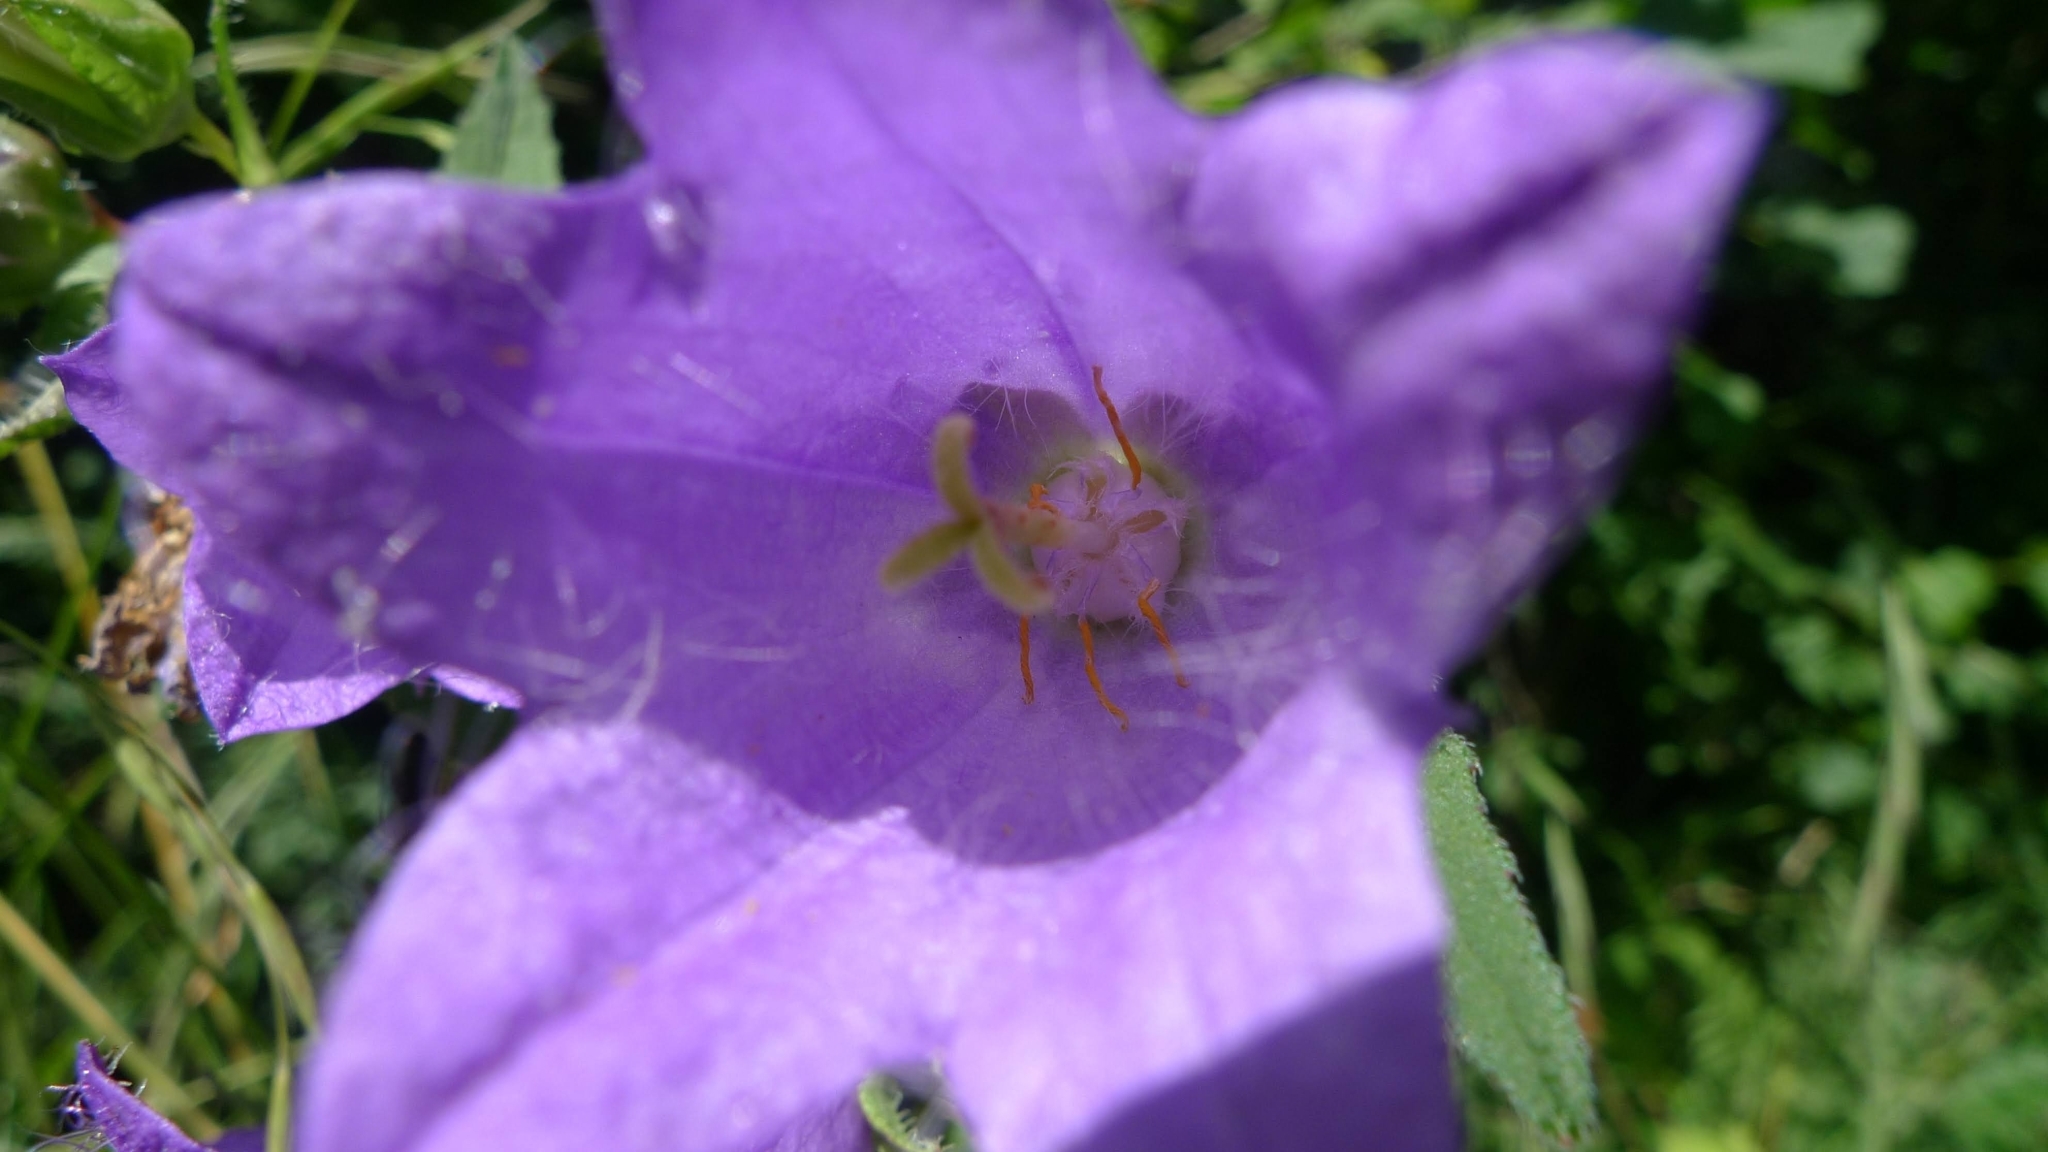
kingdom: Plantae
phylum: Tracheophyta
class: Magnoliopsida
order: Asterales
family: Campanulaceae
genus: Campanula
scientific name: Campanula trachelium
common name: Nettle-leaved bellflower
